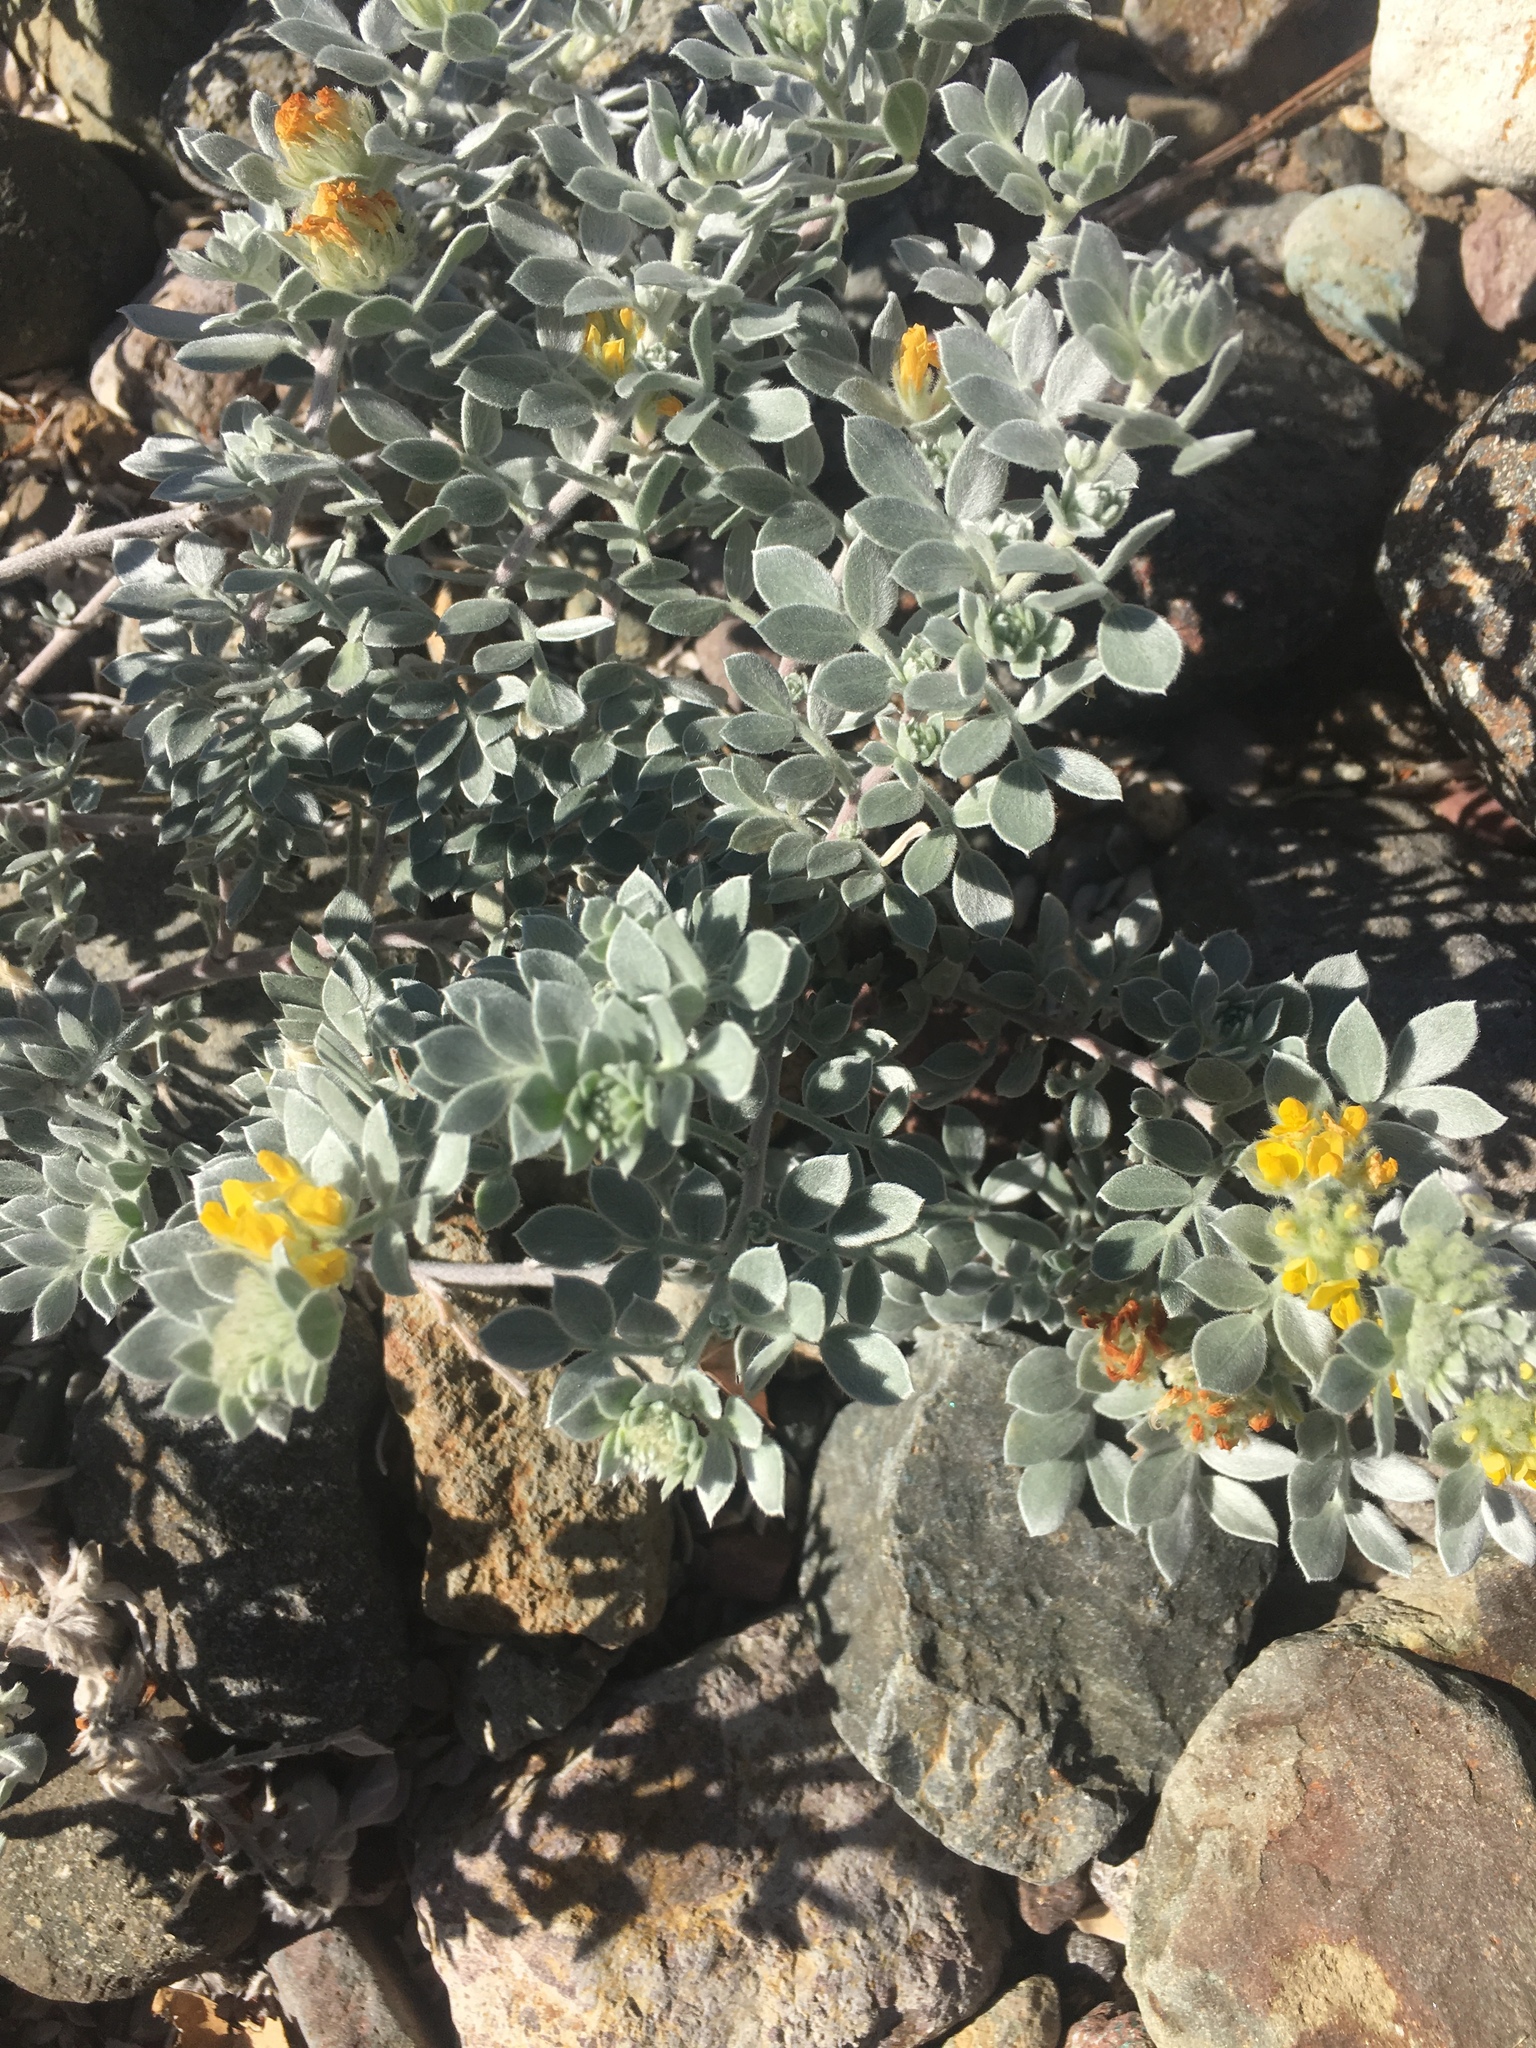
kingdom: Plantae
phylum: Tracheophyta
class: Magnoliopsida
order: Fabales
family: Fabaceae
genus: Acmispon
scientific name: Acmispon argophyllus
